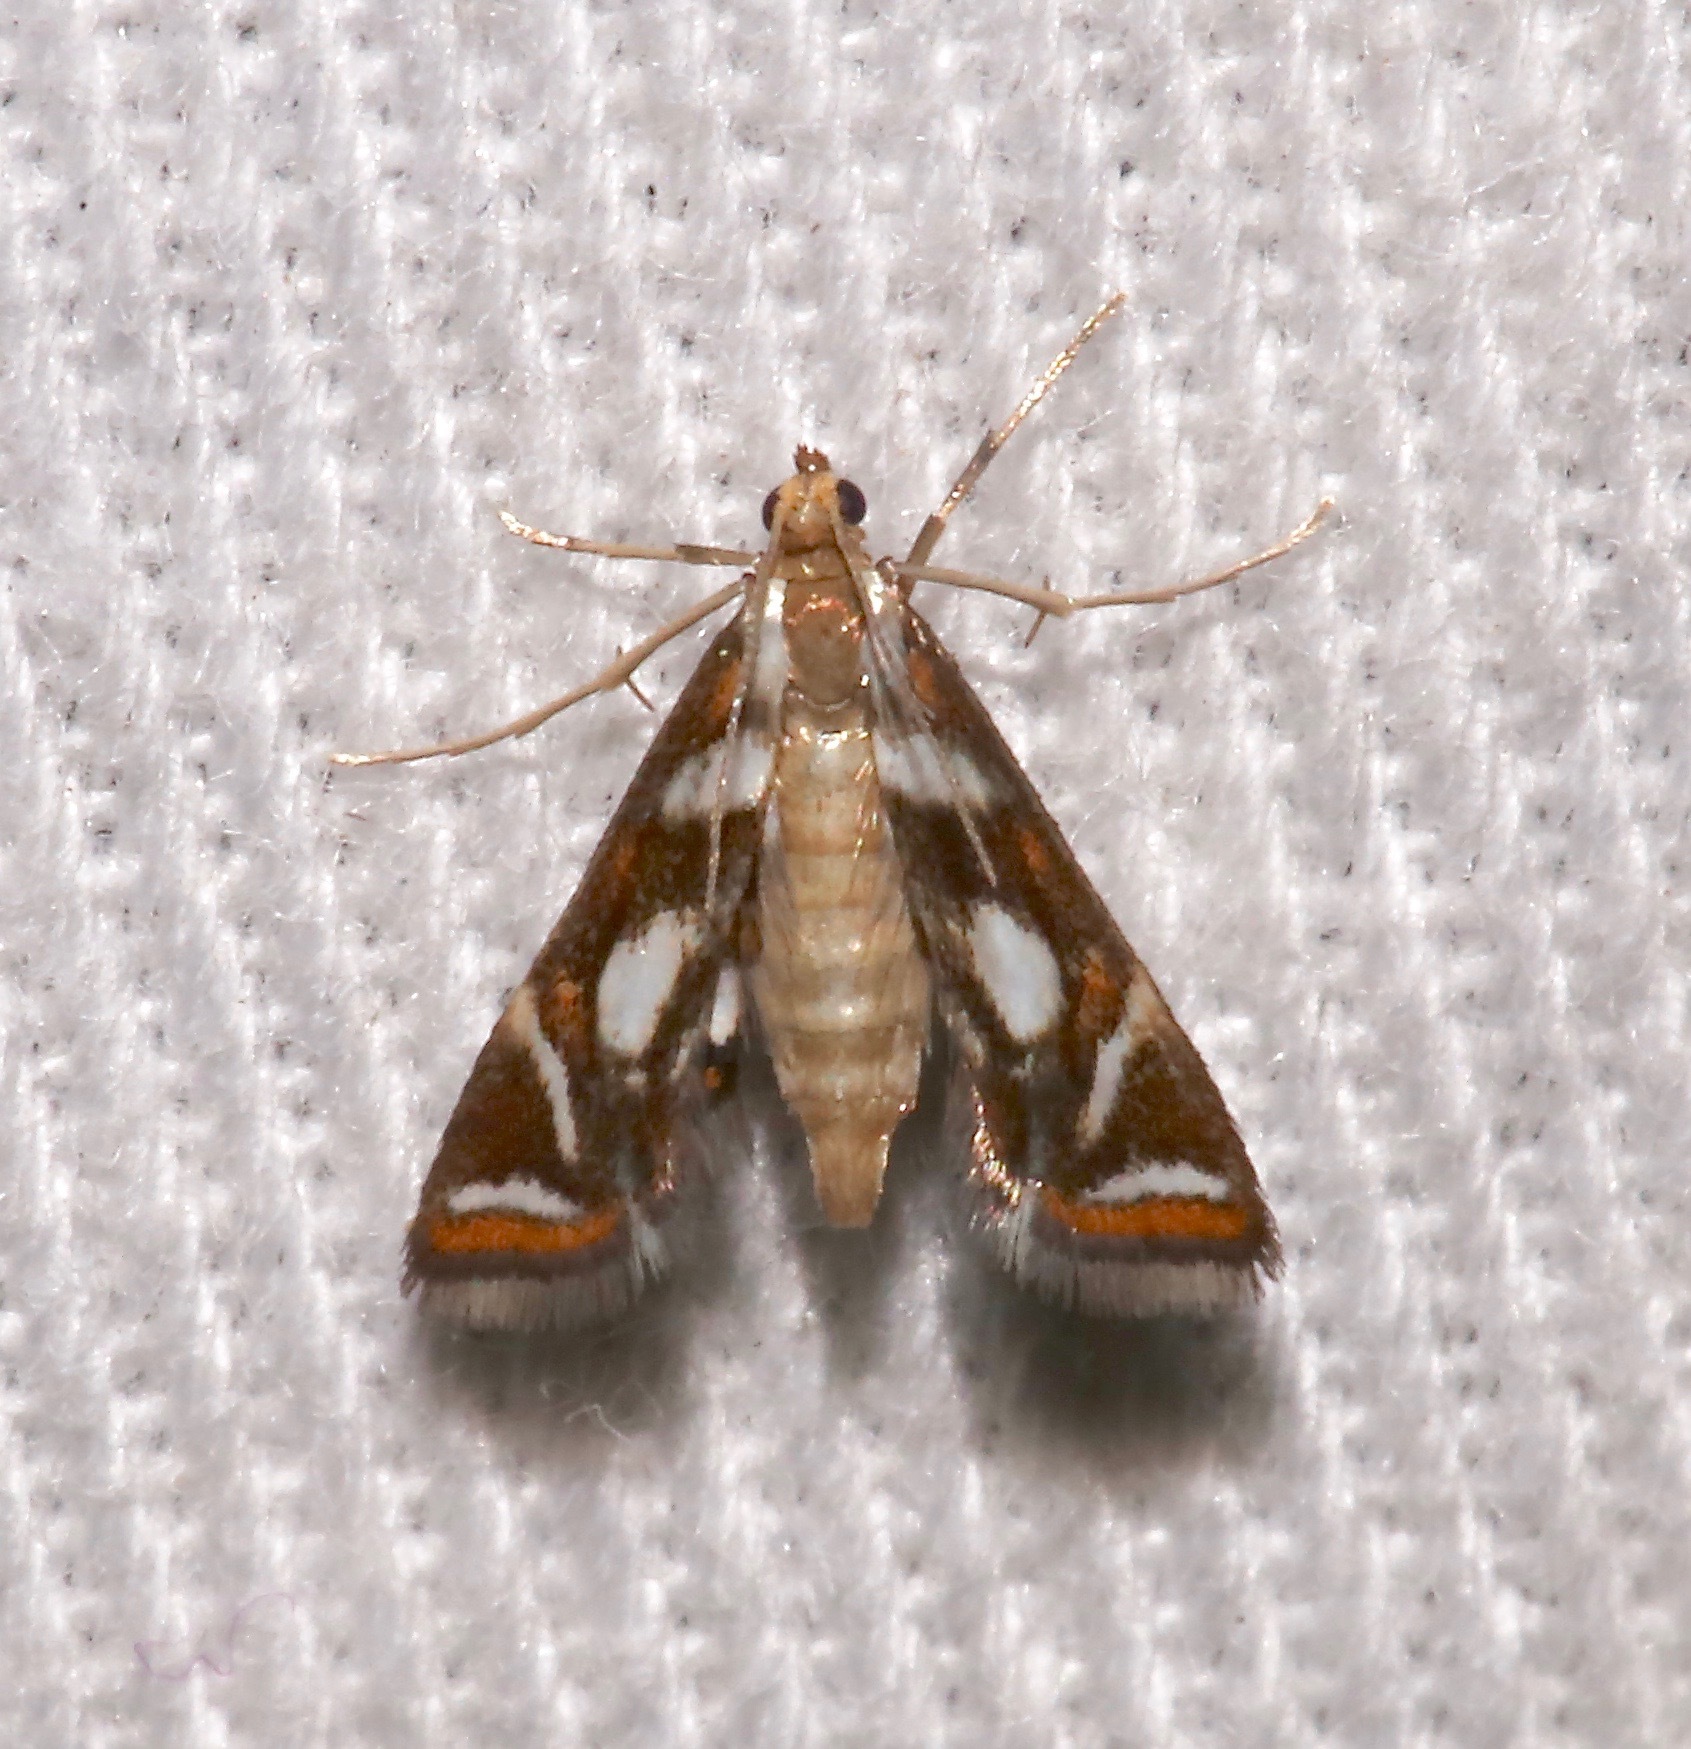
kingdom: Animalia
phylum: Arthropoda
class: Insecta
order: Lepidoptera
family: Crambidae
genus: Chrysendeton
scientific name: Chrysendeton medicinalis
